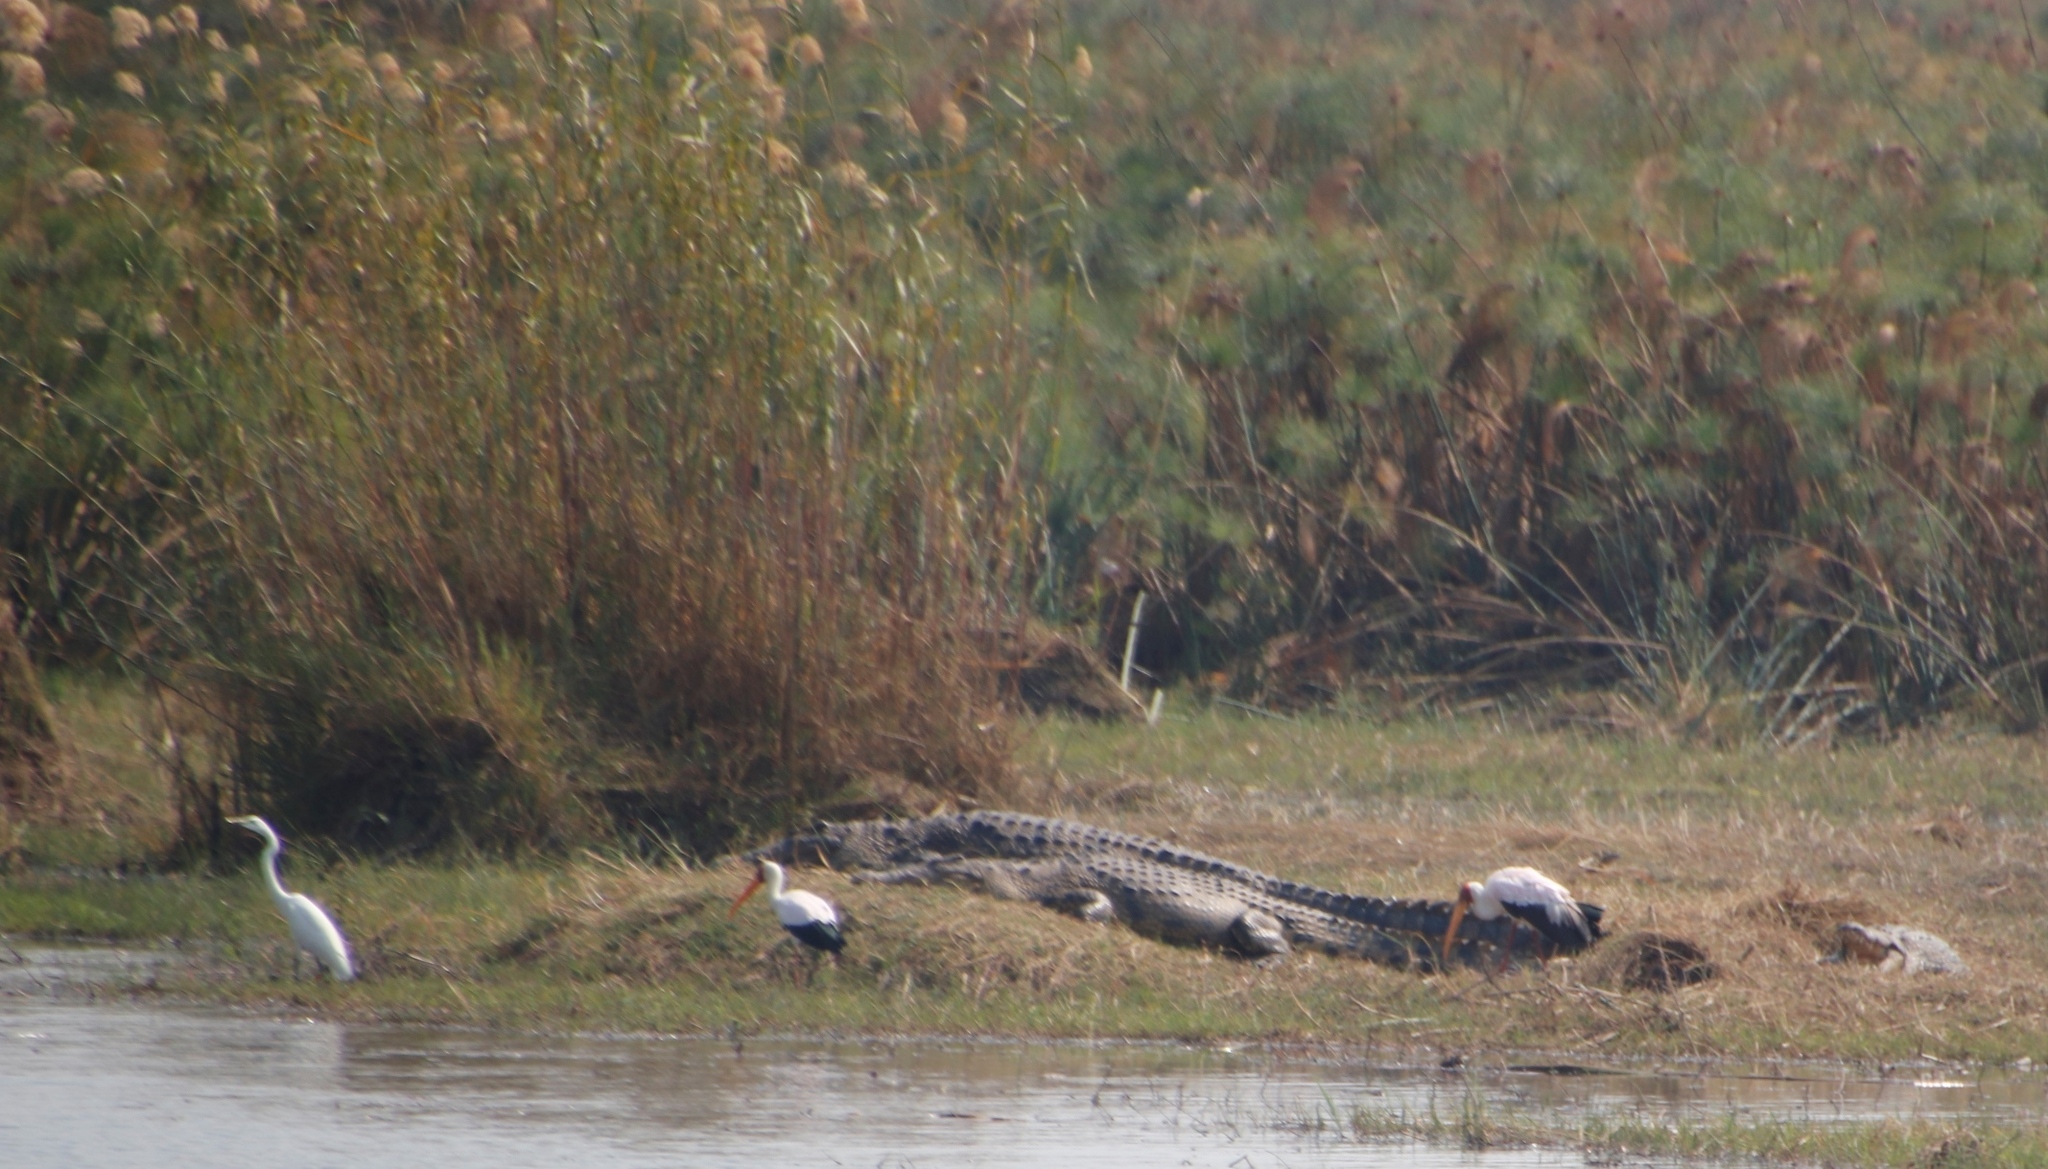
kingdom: Animalia
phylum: Chordata
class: Aves
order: Ciconiiformes
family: Ciconiidae
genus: Mycteria
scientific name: Mycteria ibis
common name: Yellow-billed stork
